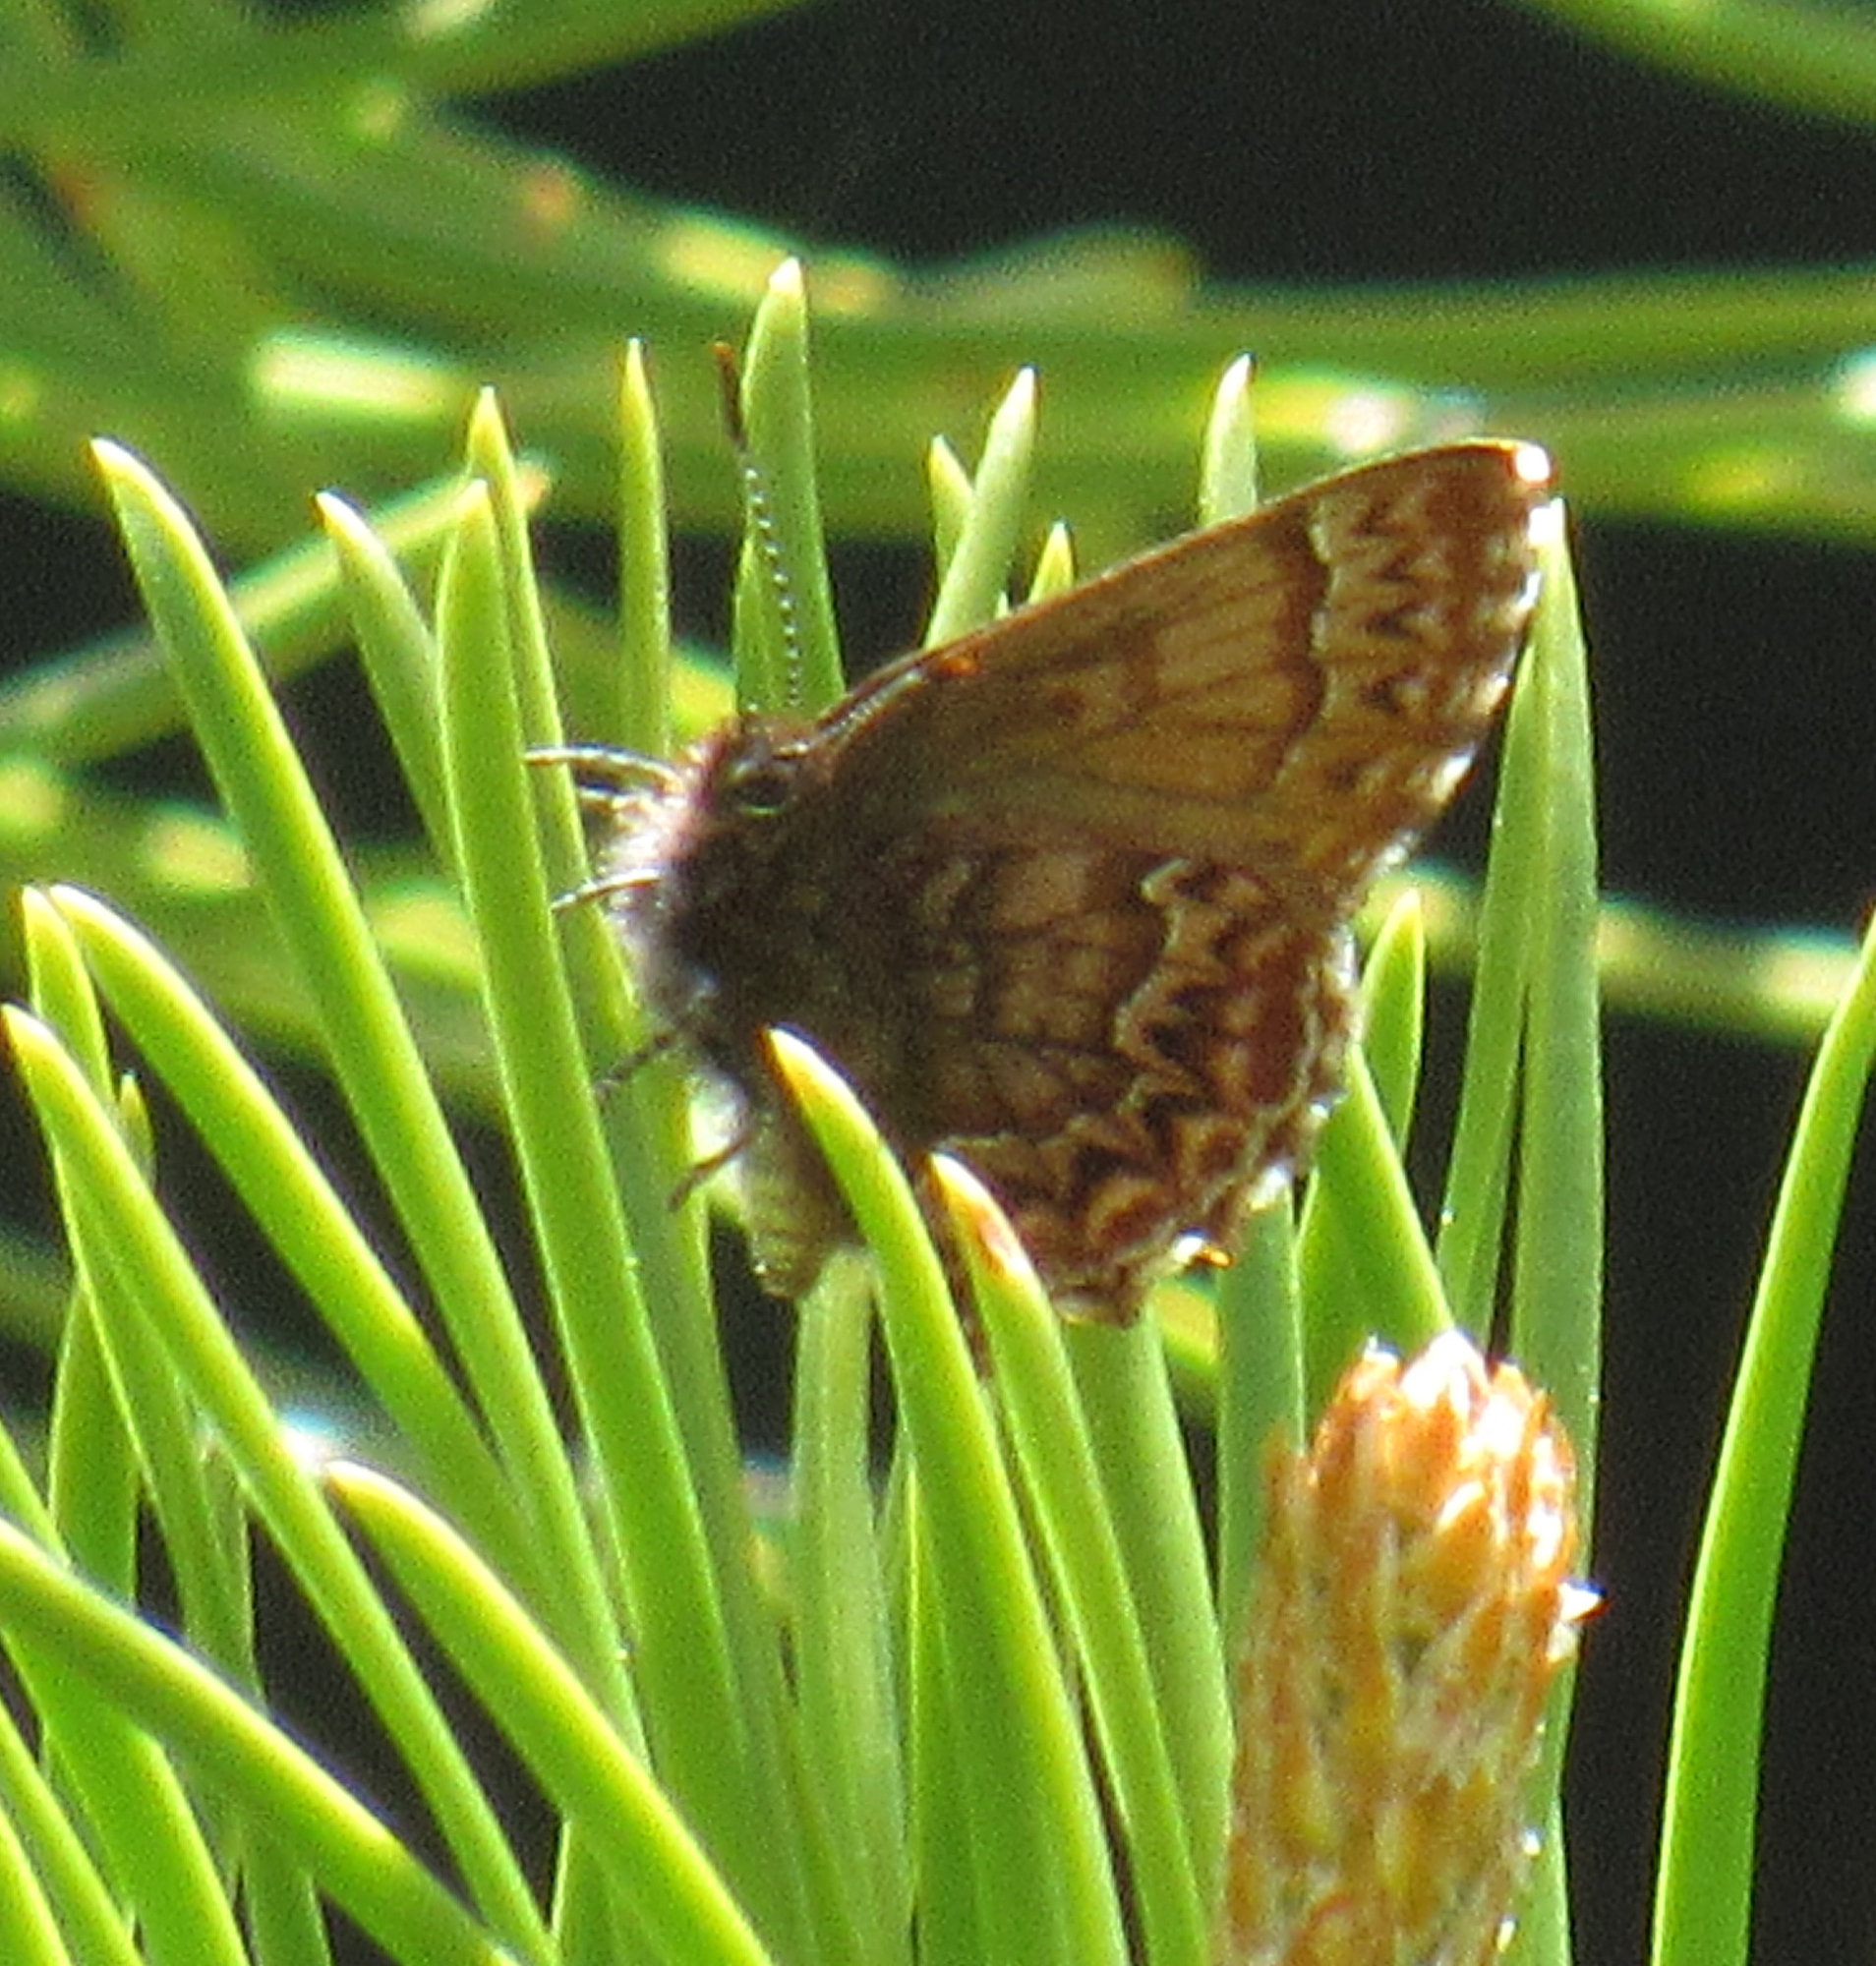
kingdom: Animalia
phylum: Arthropoda
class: Insecta
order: Lepidoptera
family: Lycaenidae
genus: Incisalia
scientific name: Incisalia eryphon
